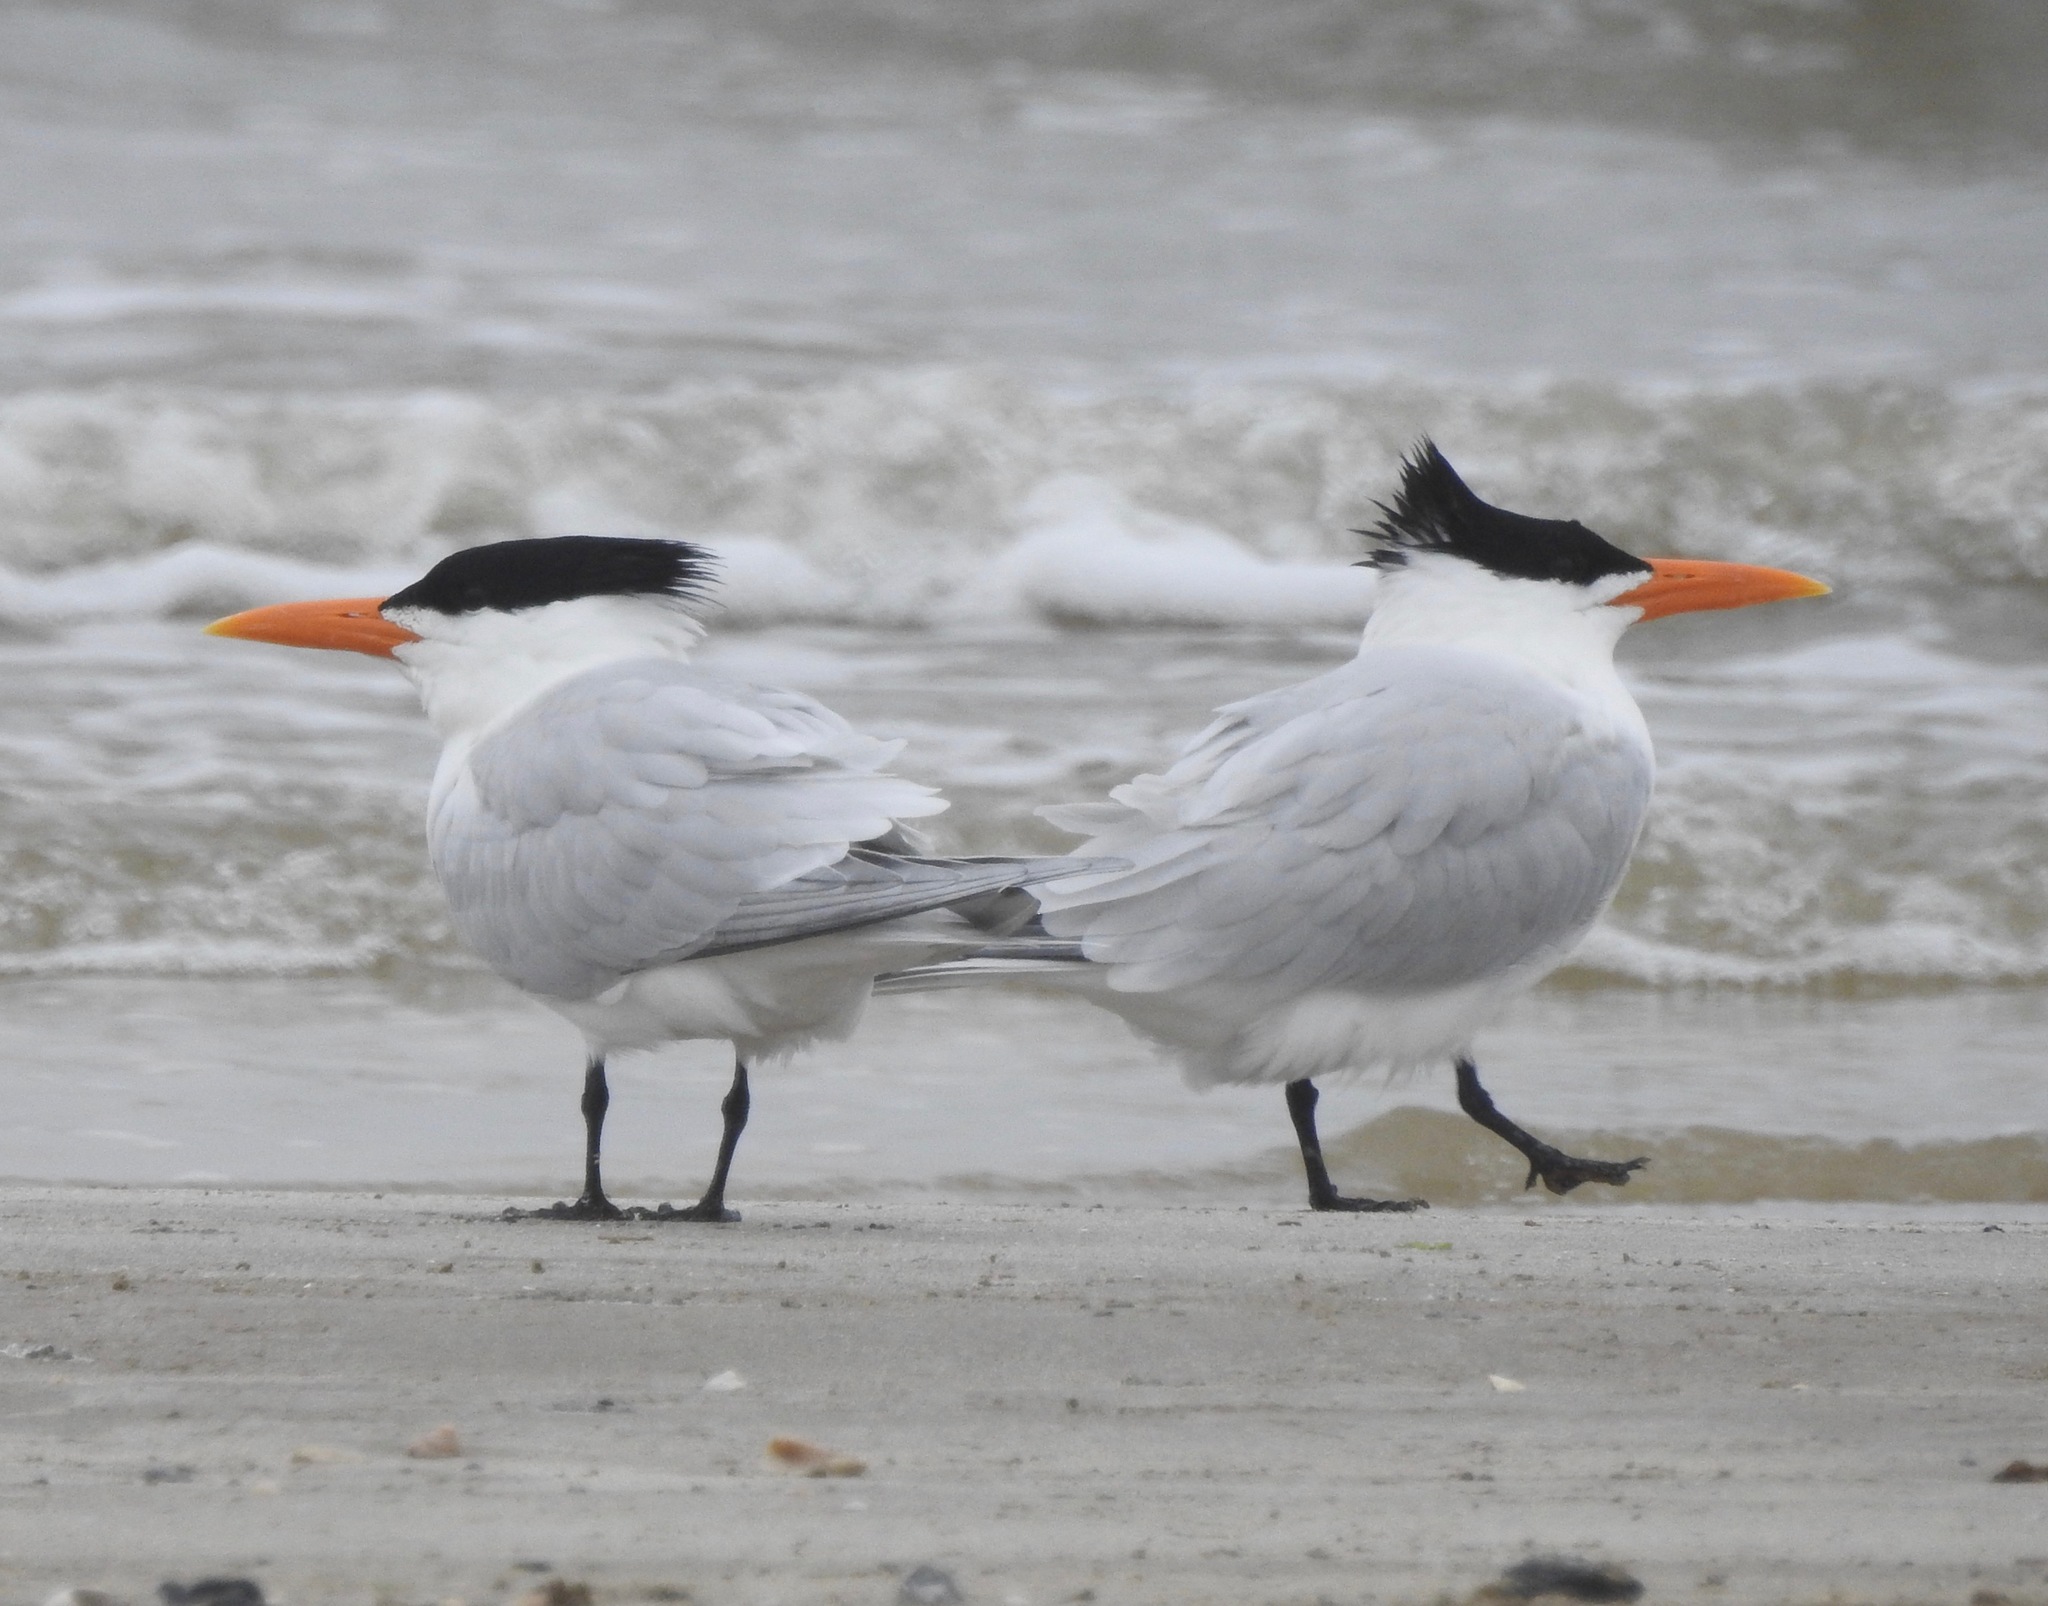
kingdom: Animalia
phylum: Chordata
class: Aves
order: Charadriiformes
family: Laridae
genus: Thalasseus
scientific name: Thalasseus maximus
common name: Royal tern
